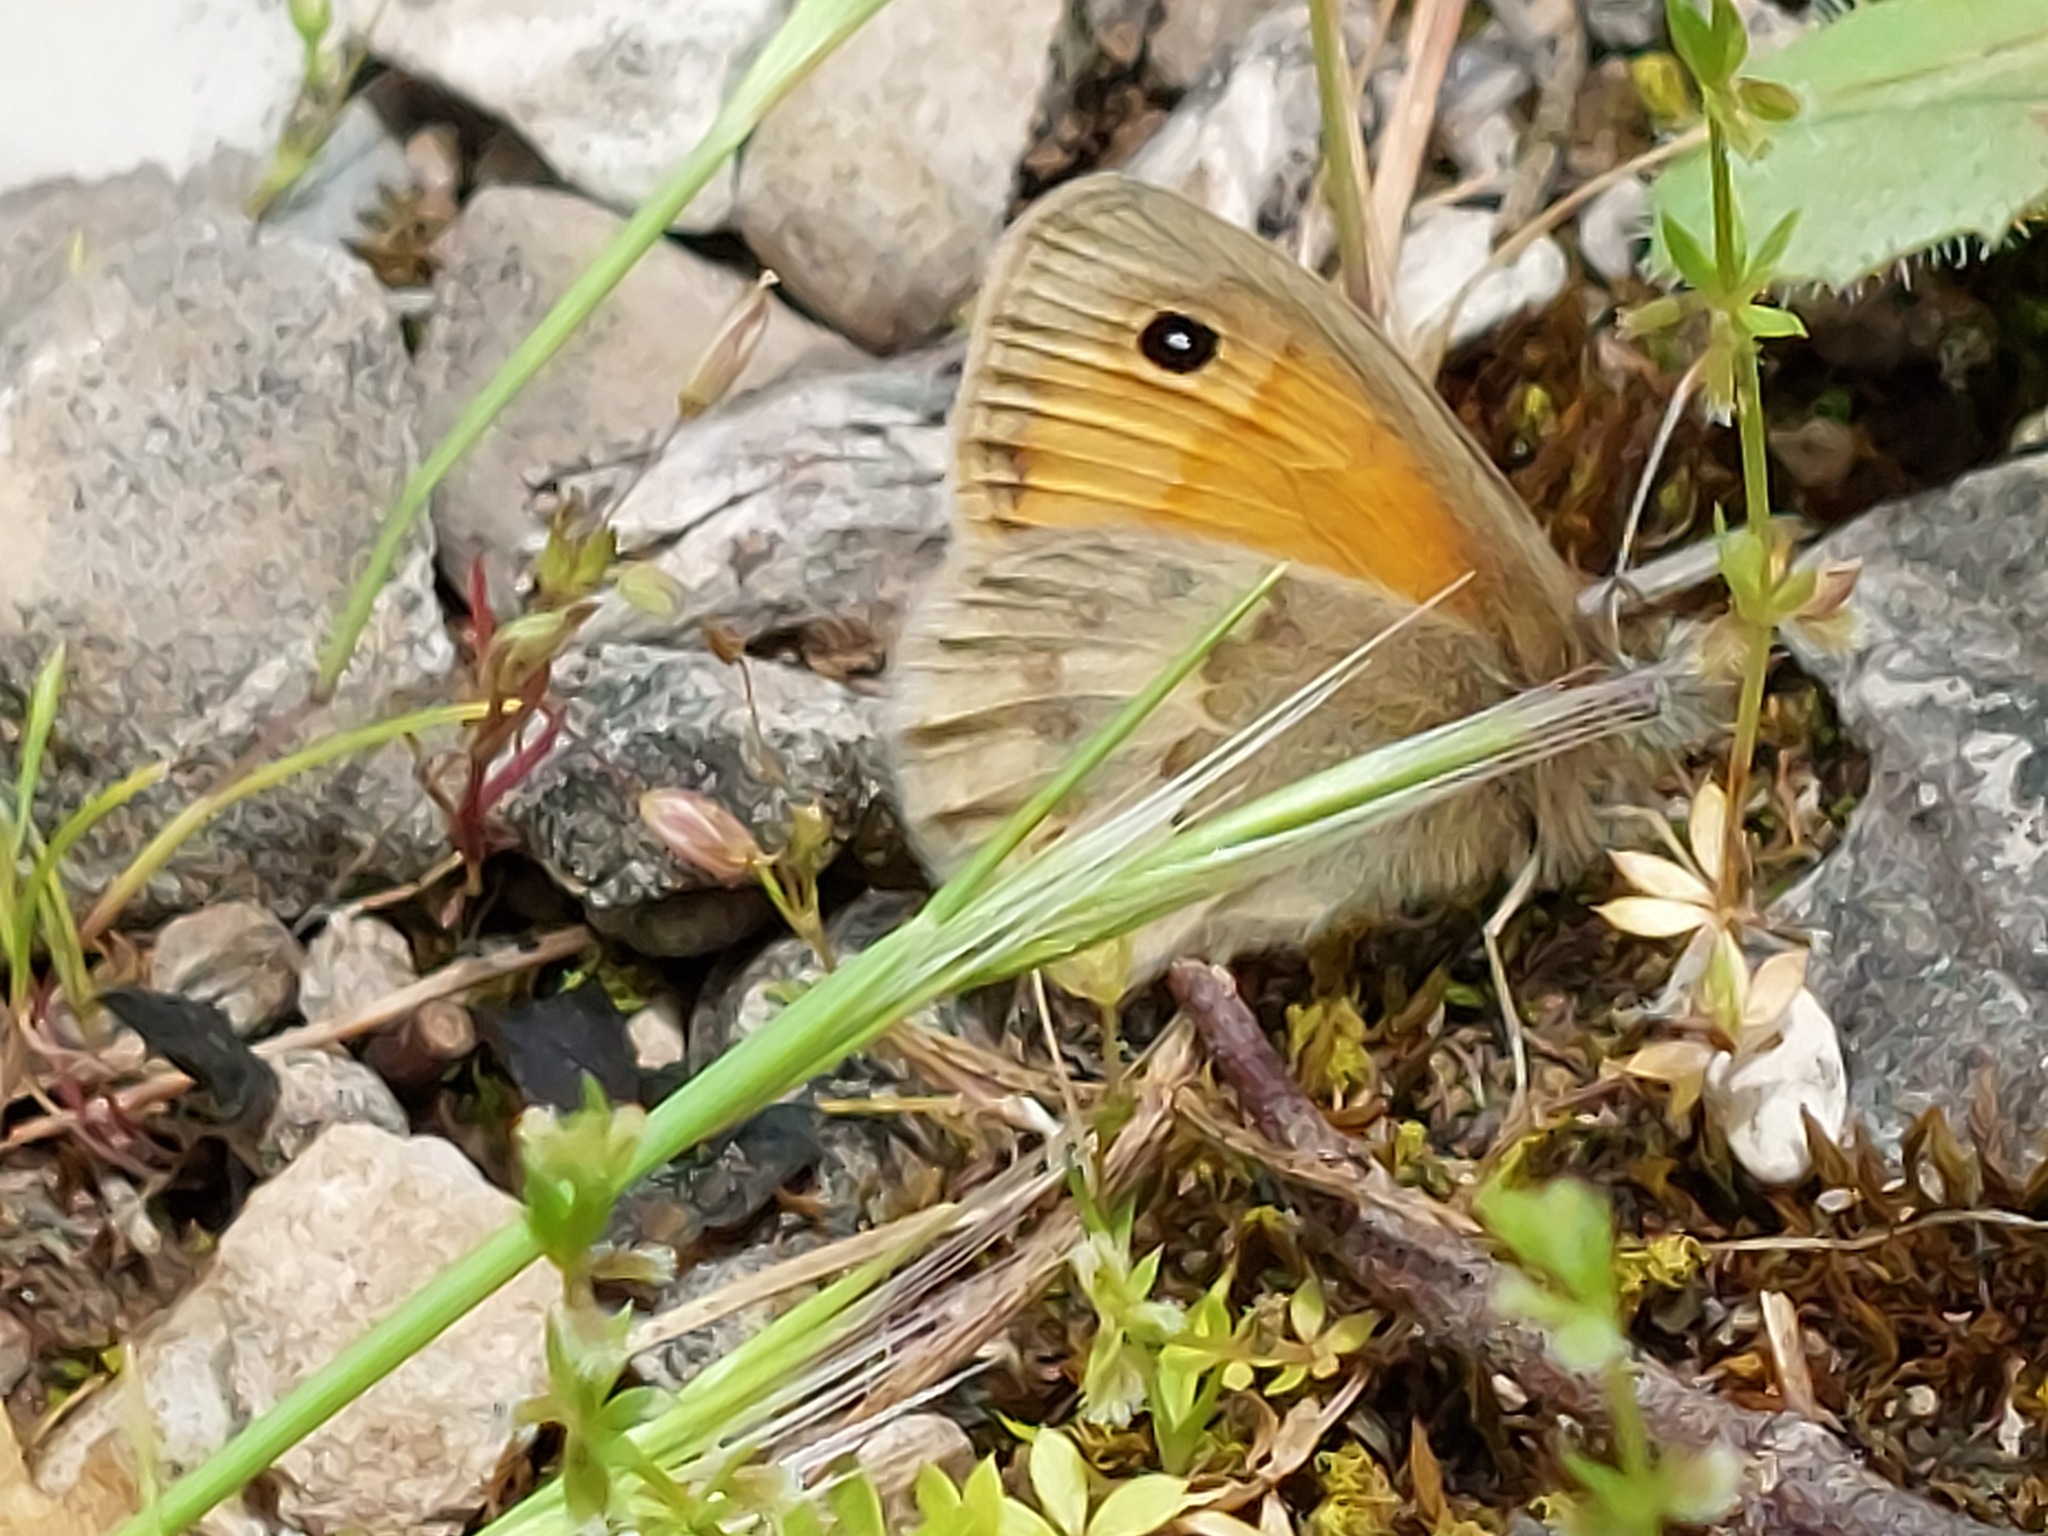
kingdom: Animalia
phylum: Arthropoda
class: Insecta
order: Lepidoptera
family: Nymphalidae
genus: Coenonympha
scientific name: Coenonympha pamphilus
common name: Small heath
